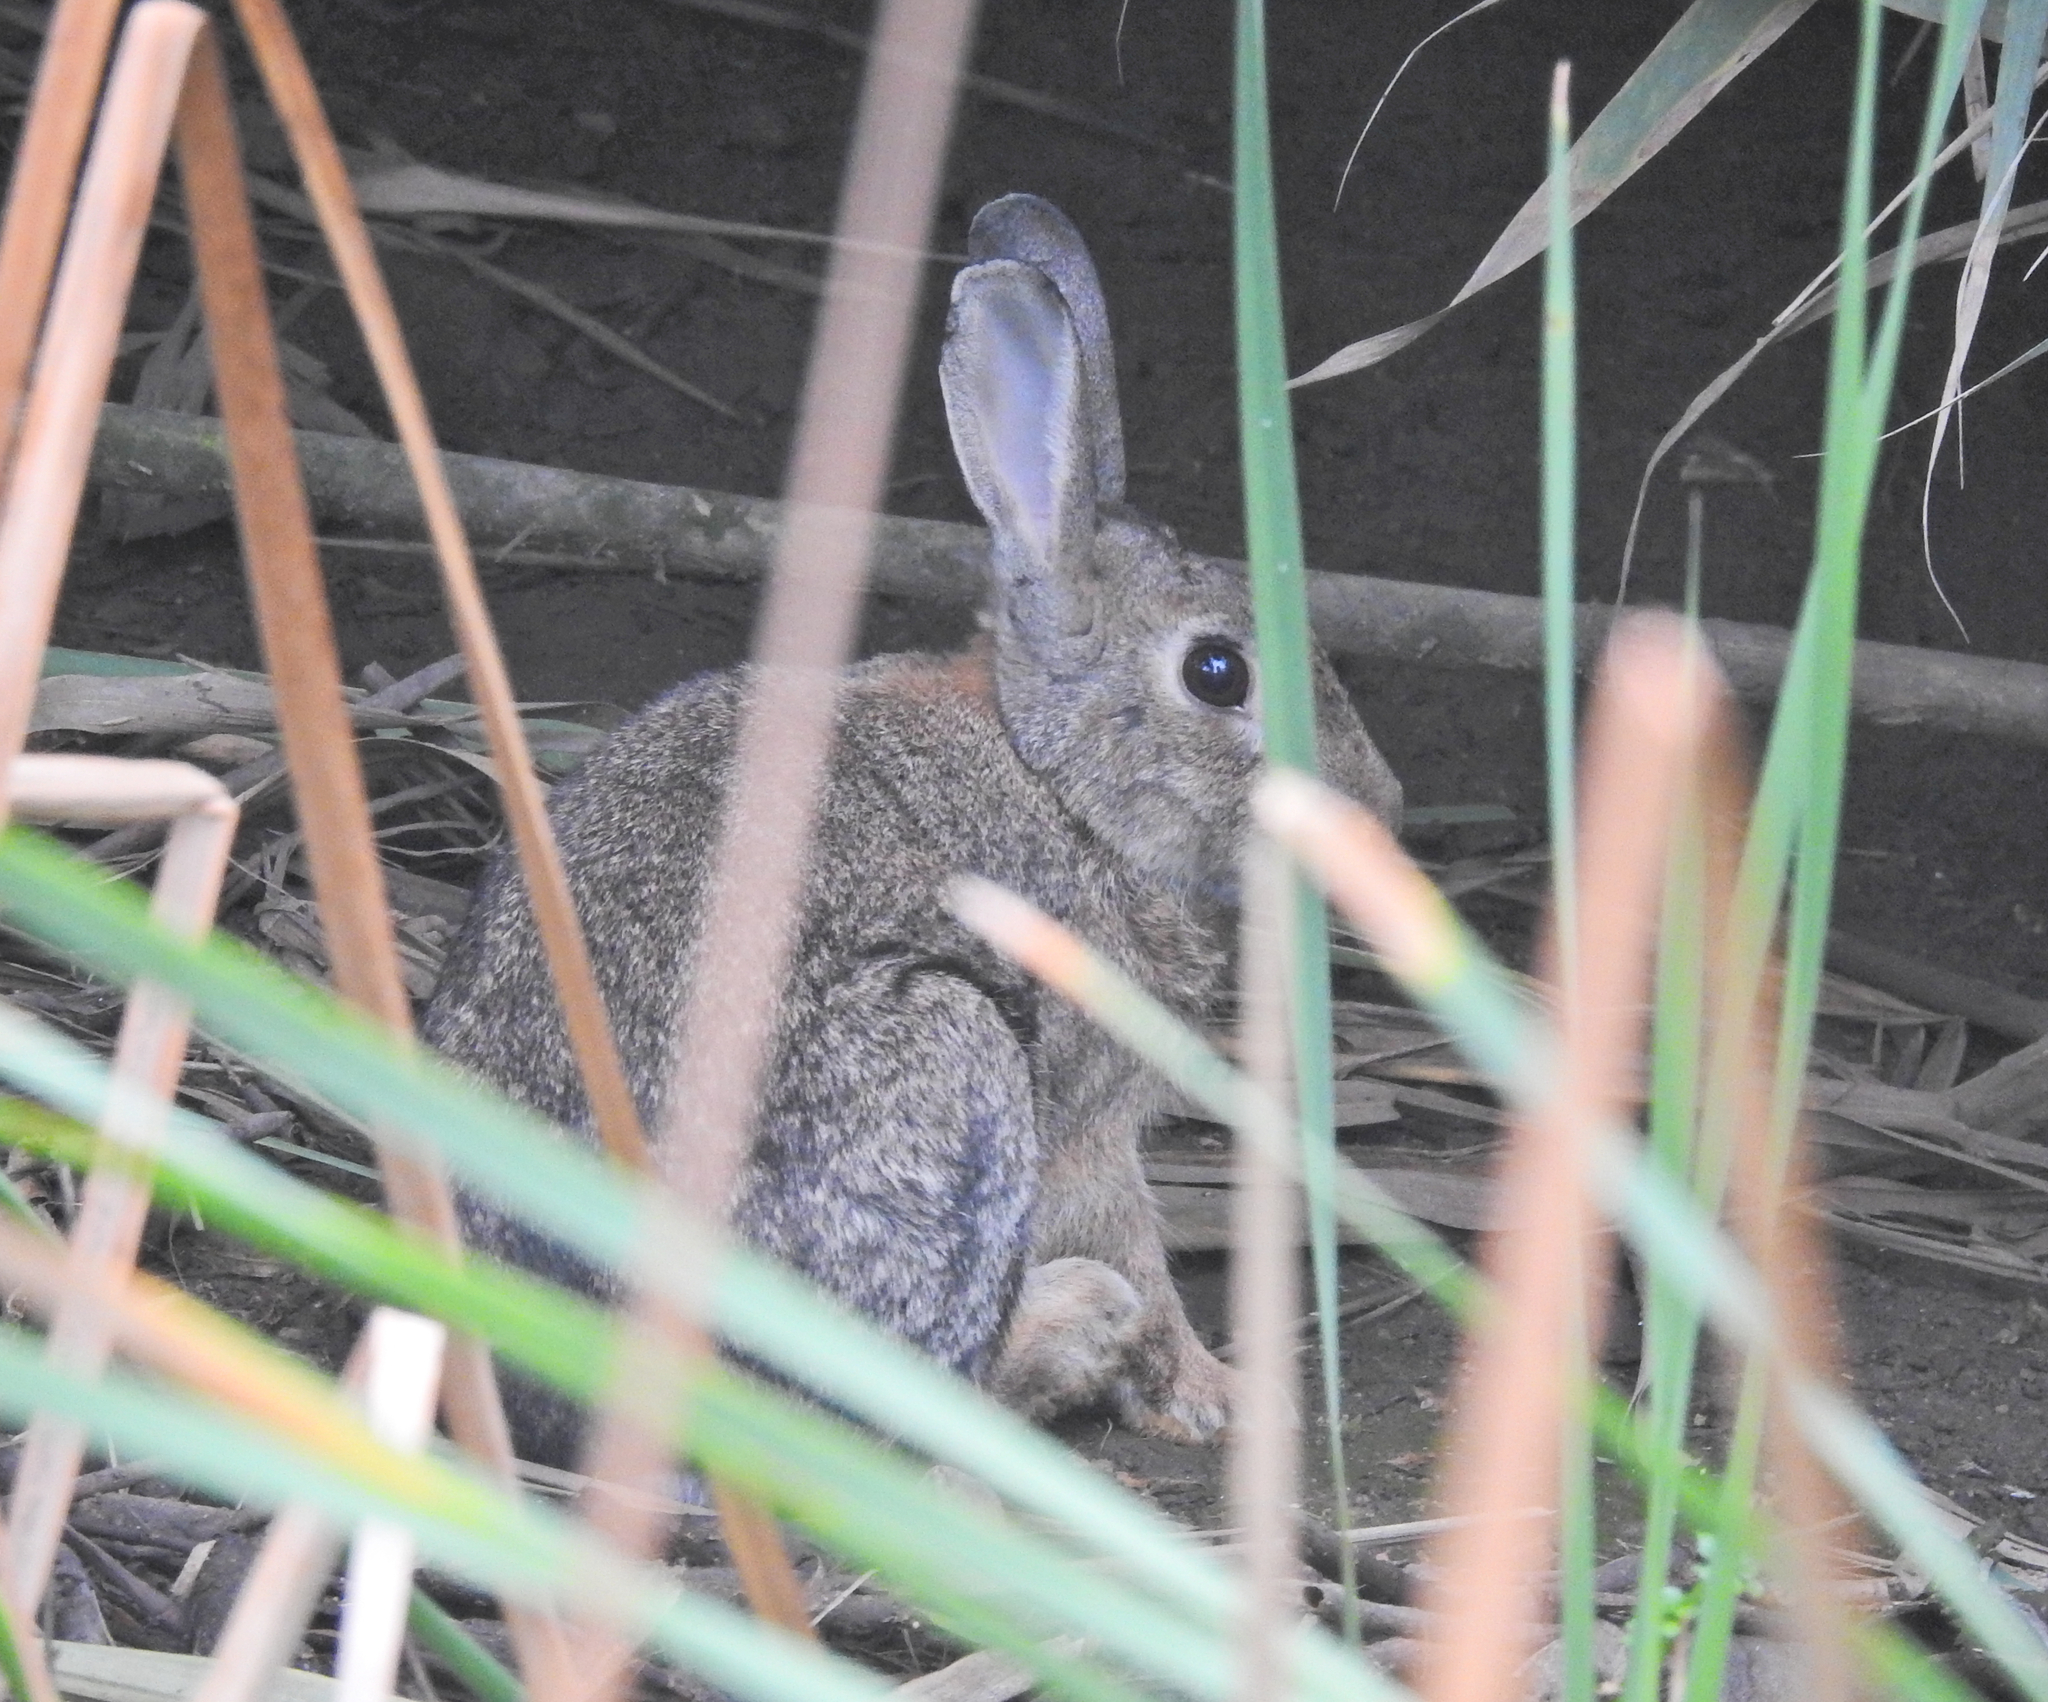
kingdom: Animalia
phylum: Chordata
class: Mammalia
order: Lagomorpha
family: Leporidae
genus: Oryctolagus
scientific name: Oryctolagus cuniculus
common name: European rabbit
